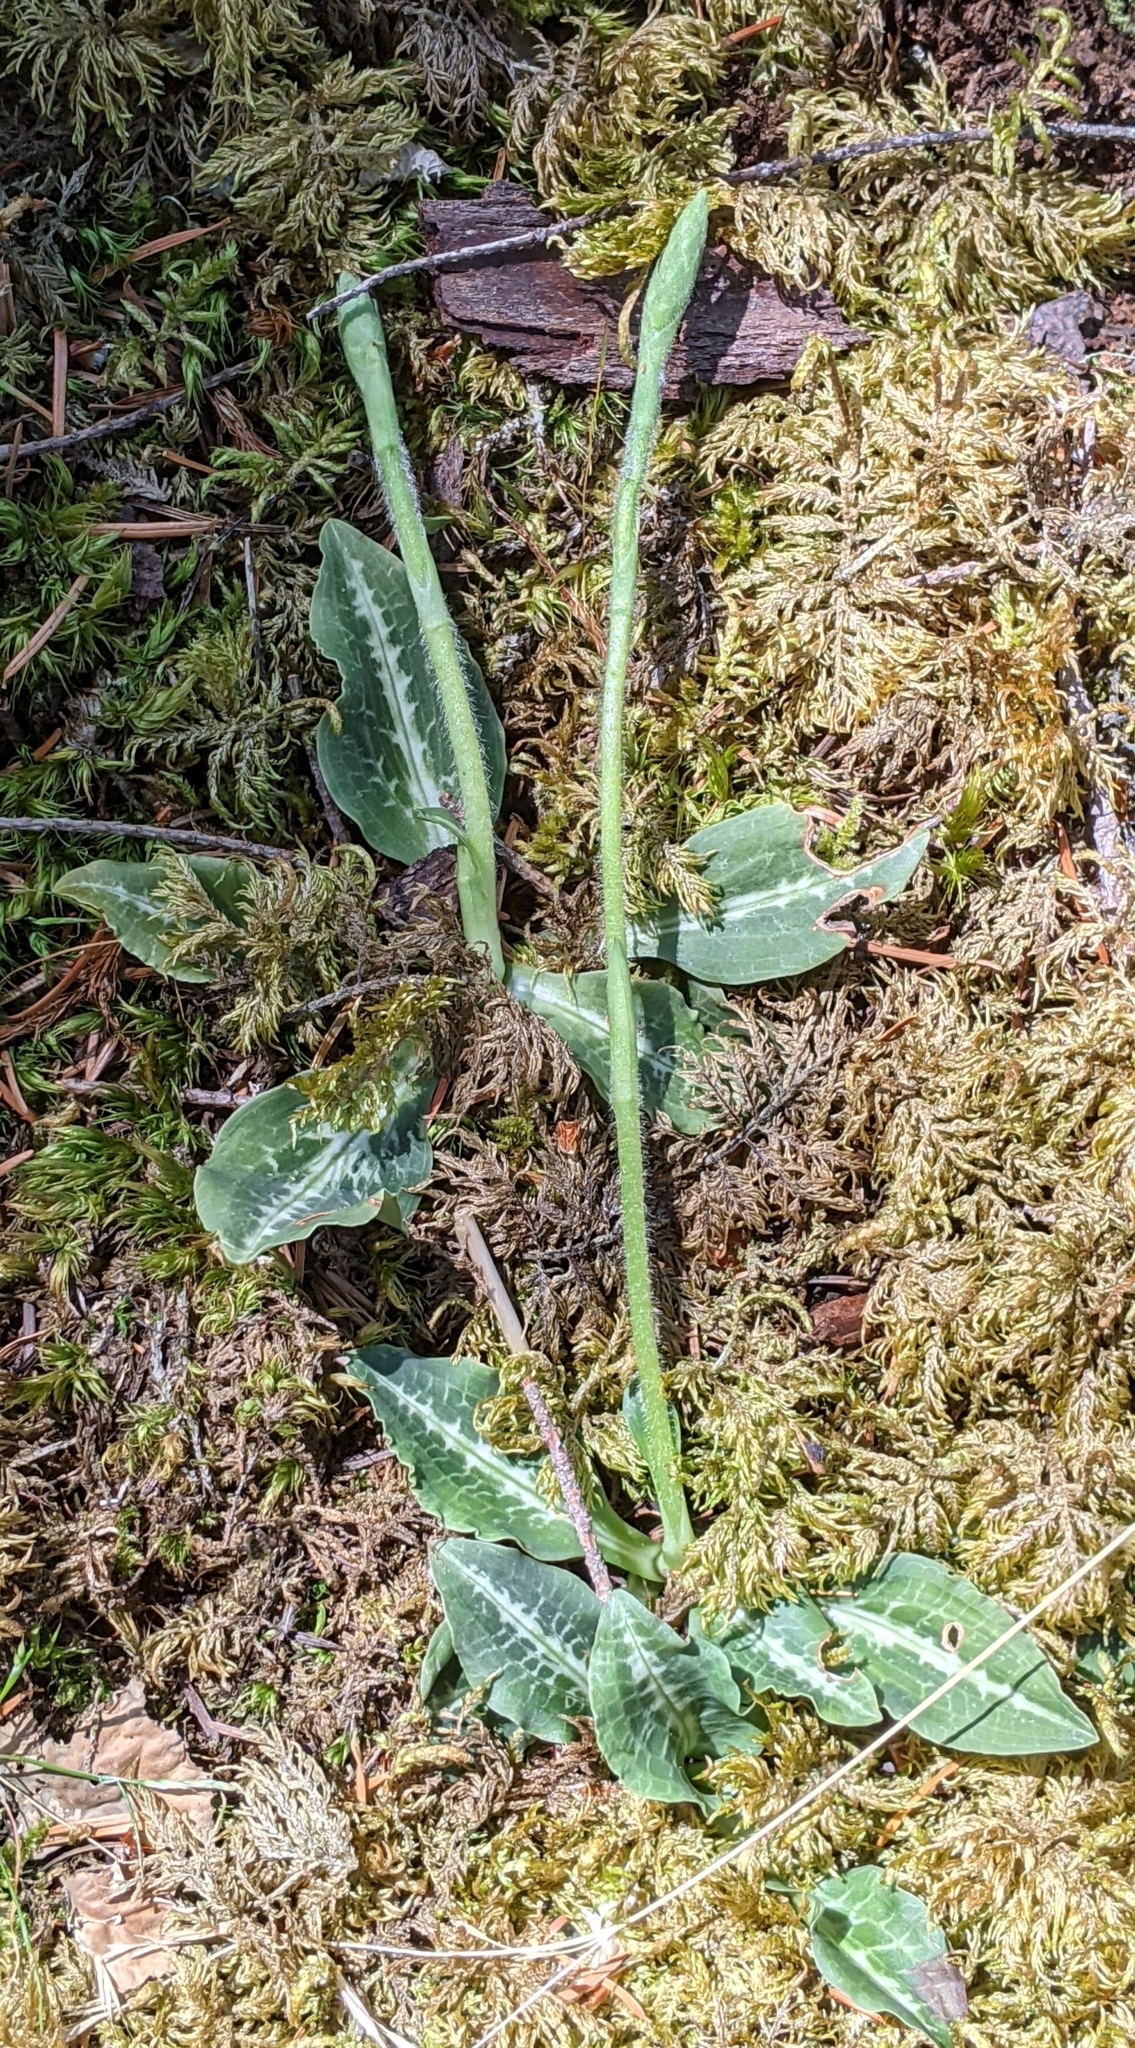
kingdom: Plantae
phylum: Tracheophyta
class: Liliopsida
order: Asparagales
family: Orchidaceae
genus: Goodyera
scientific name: Goodyera oblongifolia
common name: Giant rattlesnake-plantain
